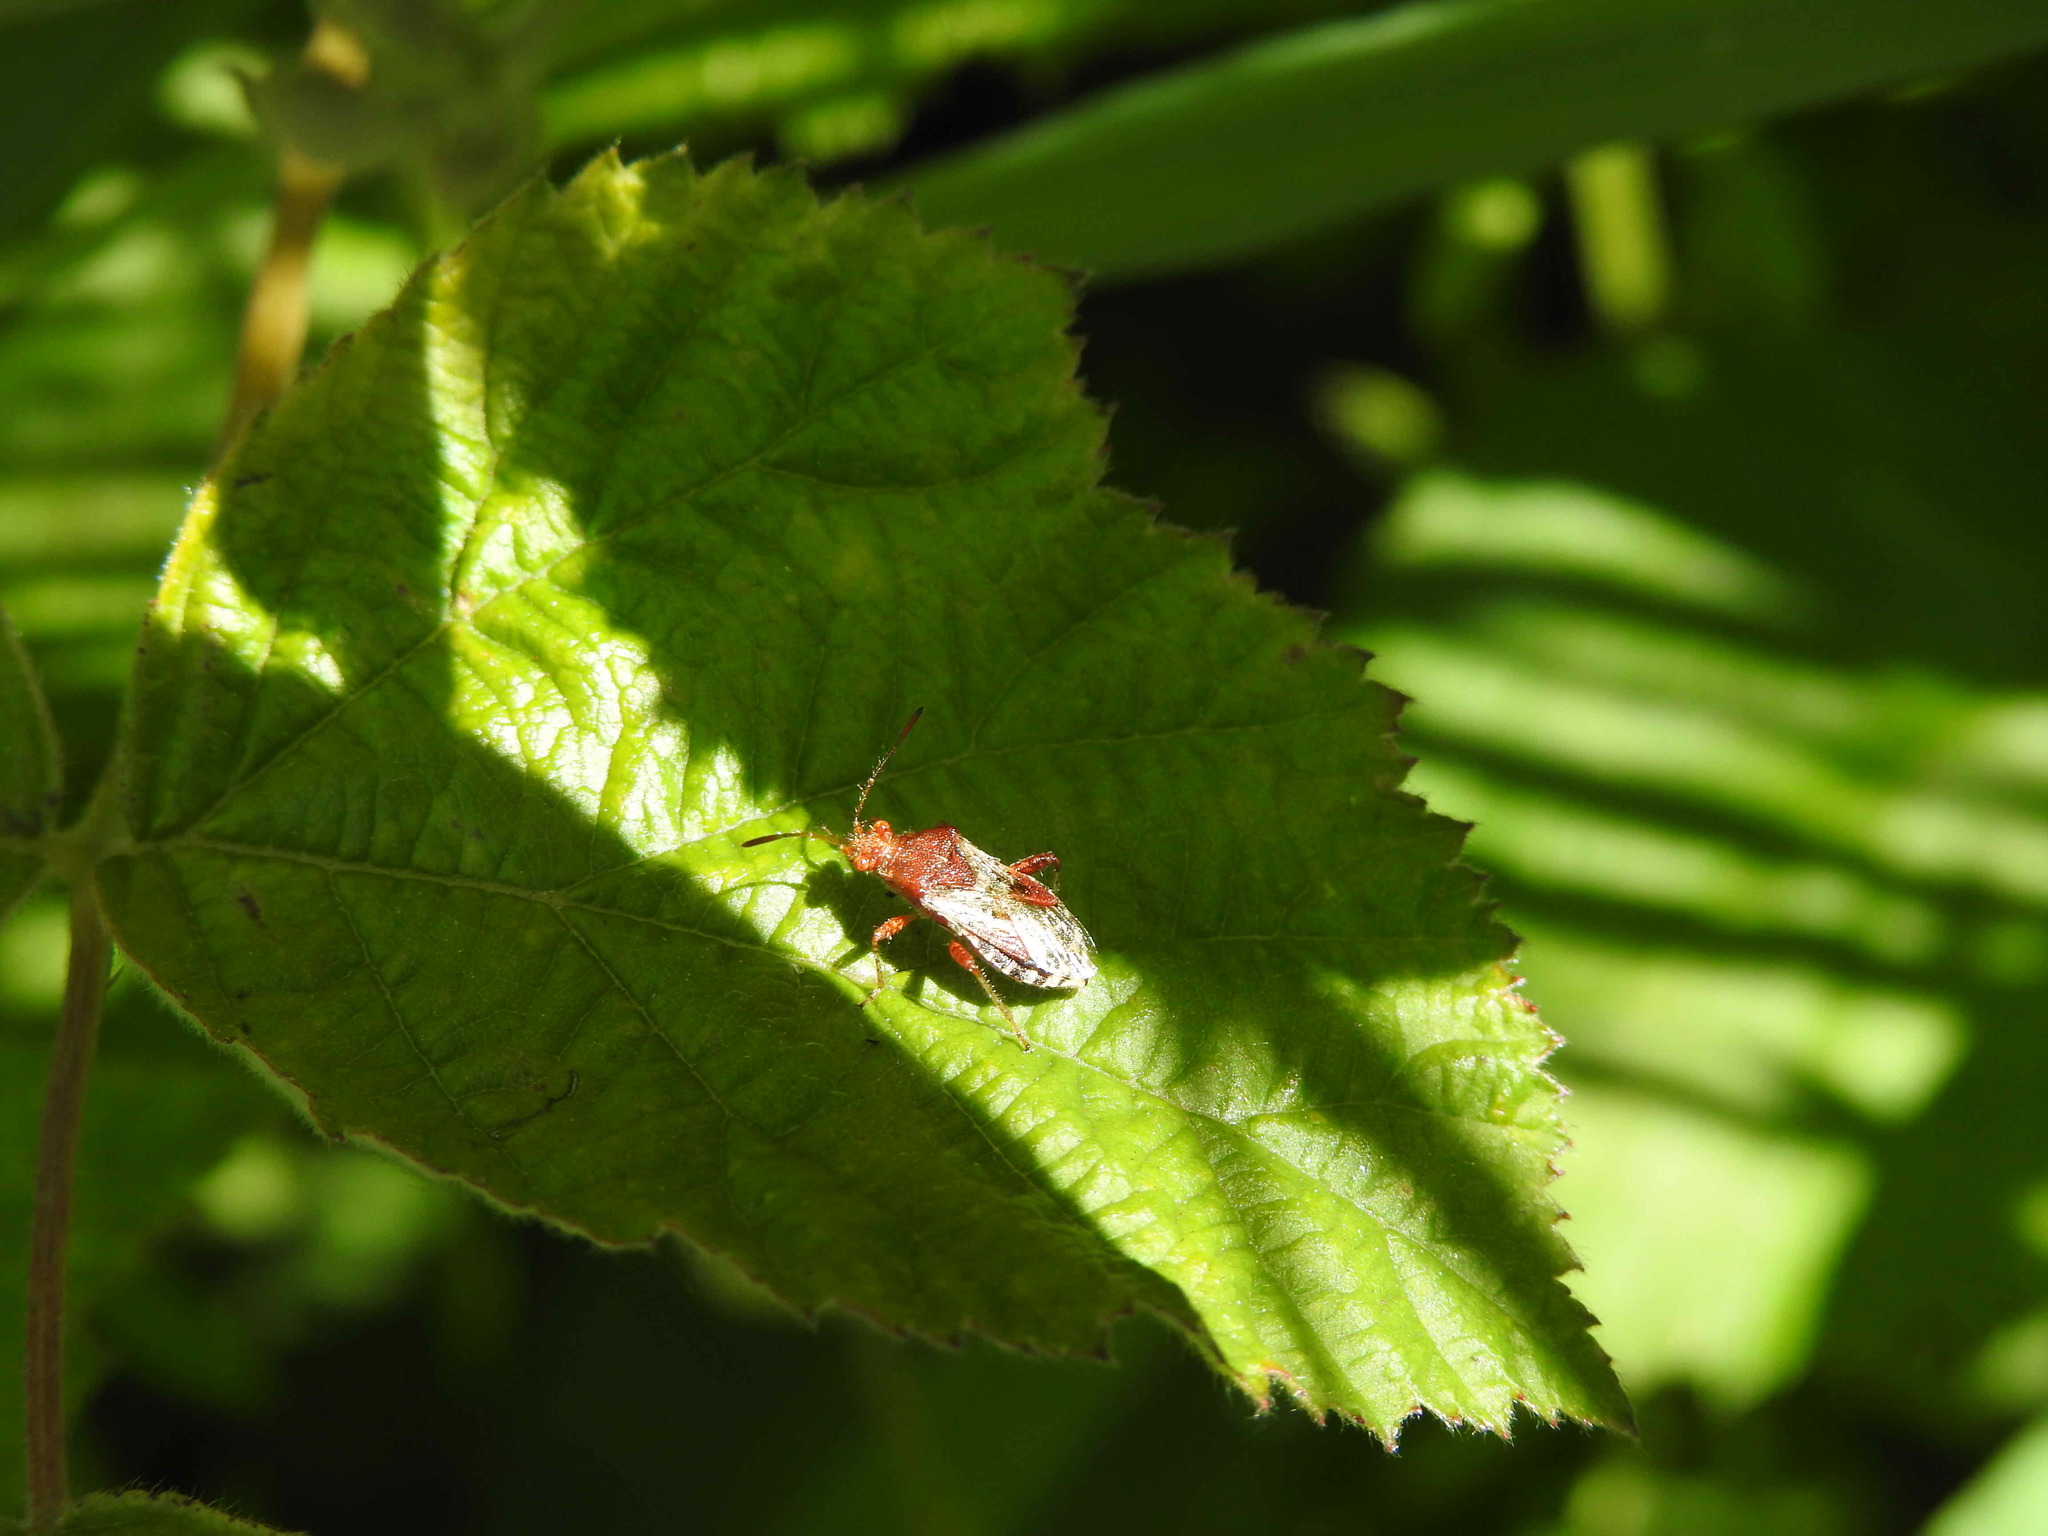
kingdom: Animalia
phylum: Arthropoda
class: Insecta
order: Hemiptera
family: Rhopalidae
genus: Rhopalus
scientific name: Rhopalus subrufus
